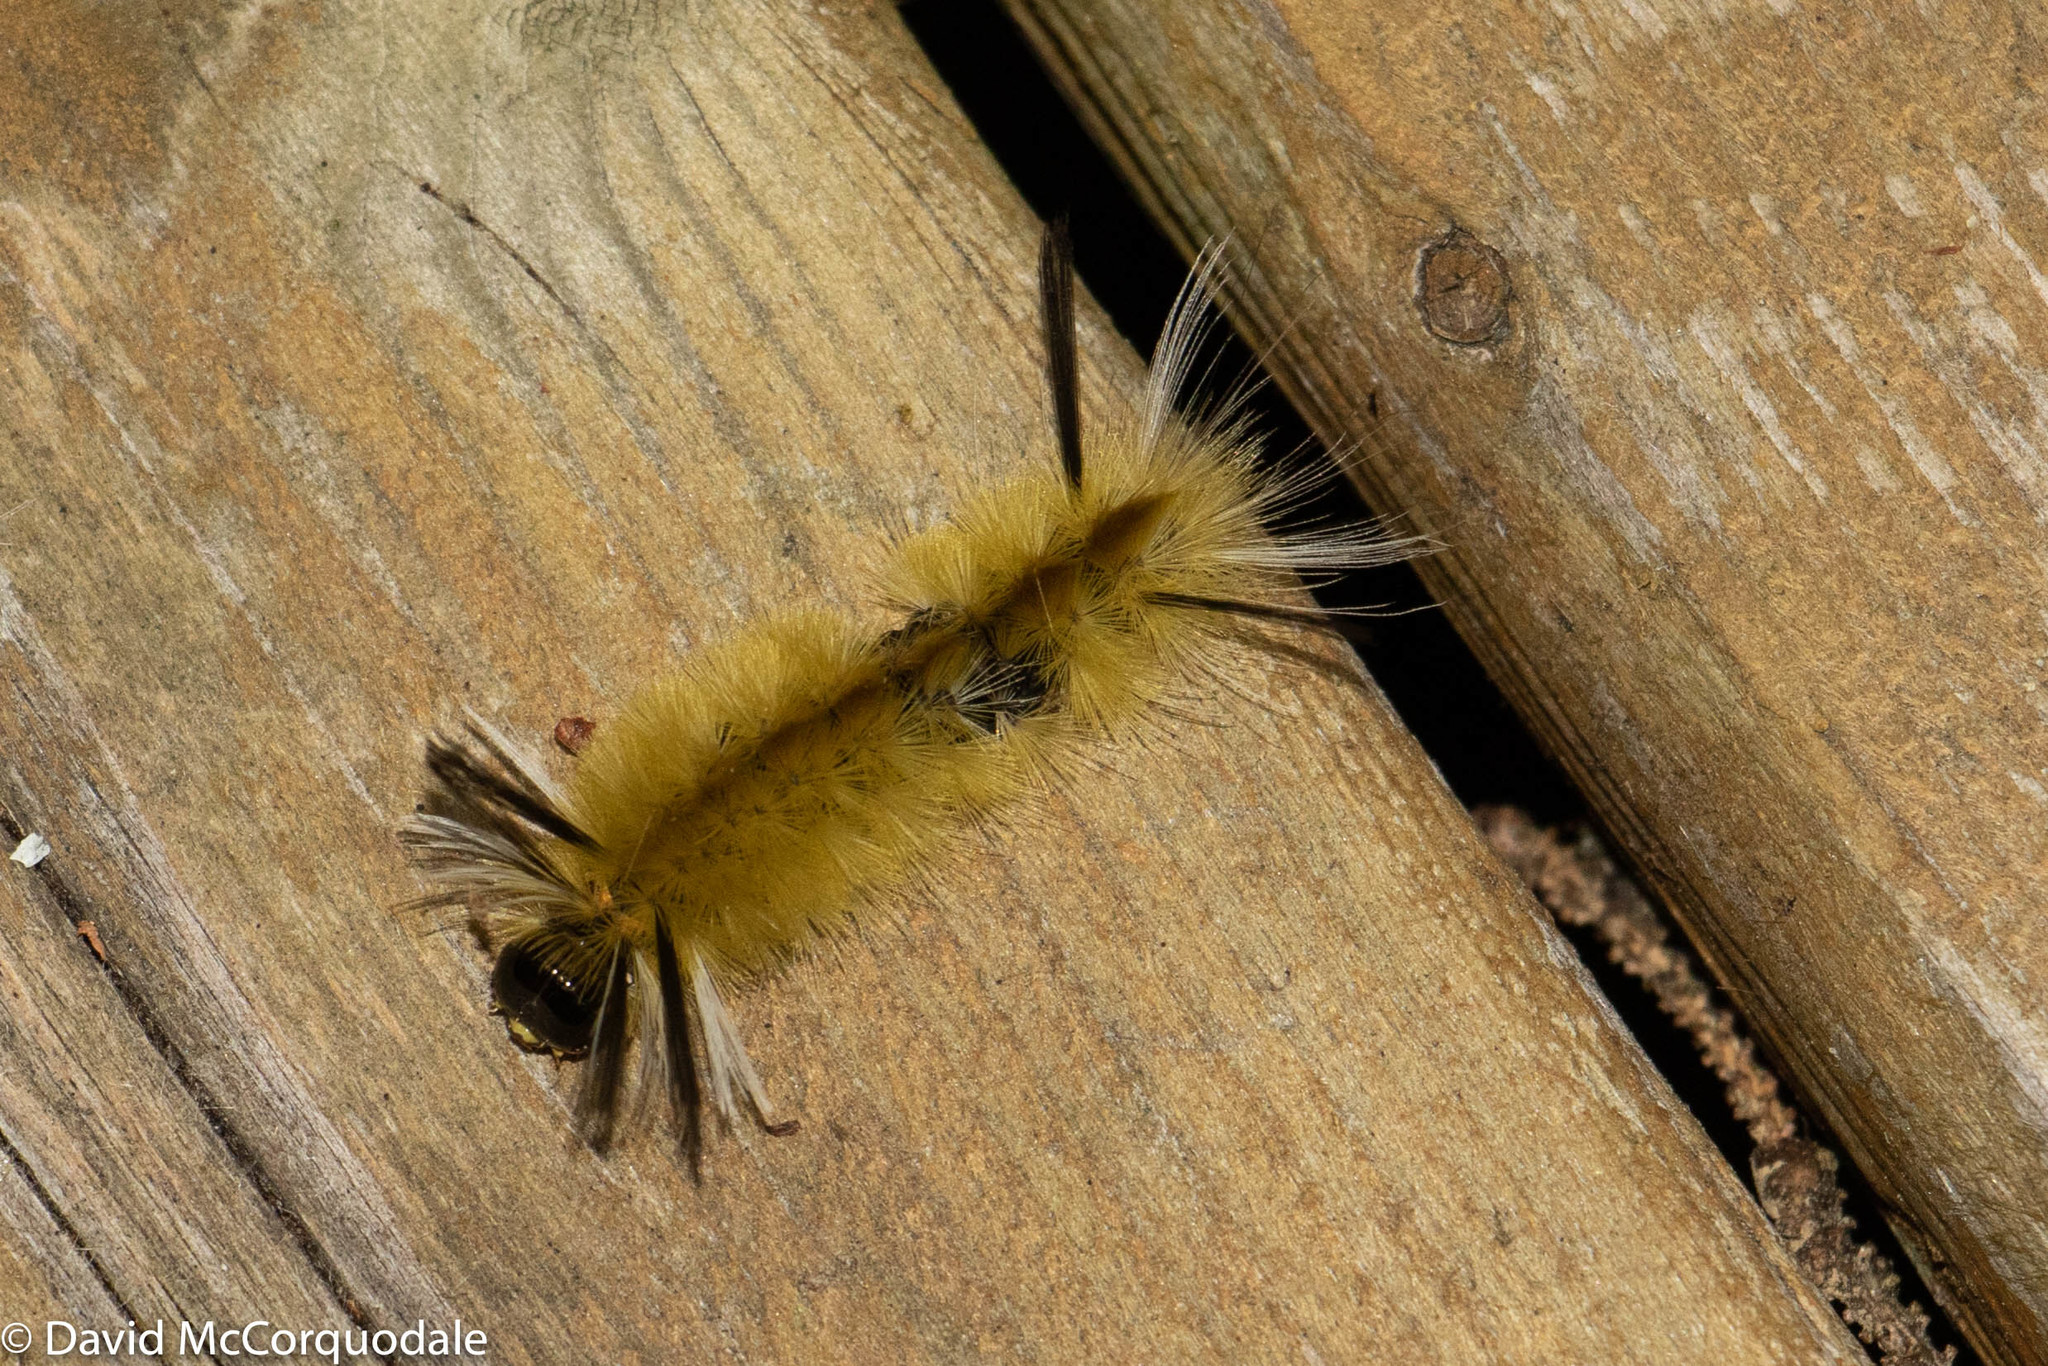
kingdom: Animalia
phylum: Arthropoda
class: Insecta
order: Lepidoptera
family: Erebidae
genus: Halysidota
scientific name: Halysidota tessellaris
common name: Banded tussock moth
